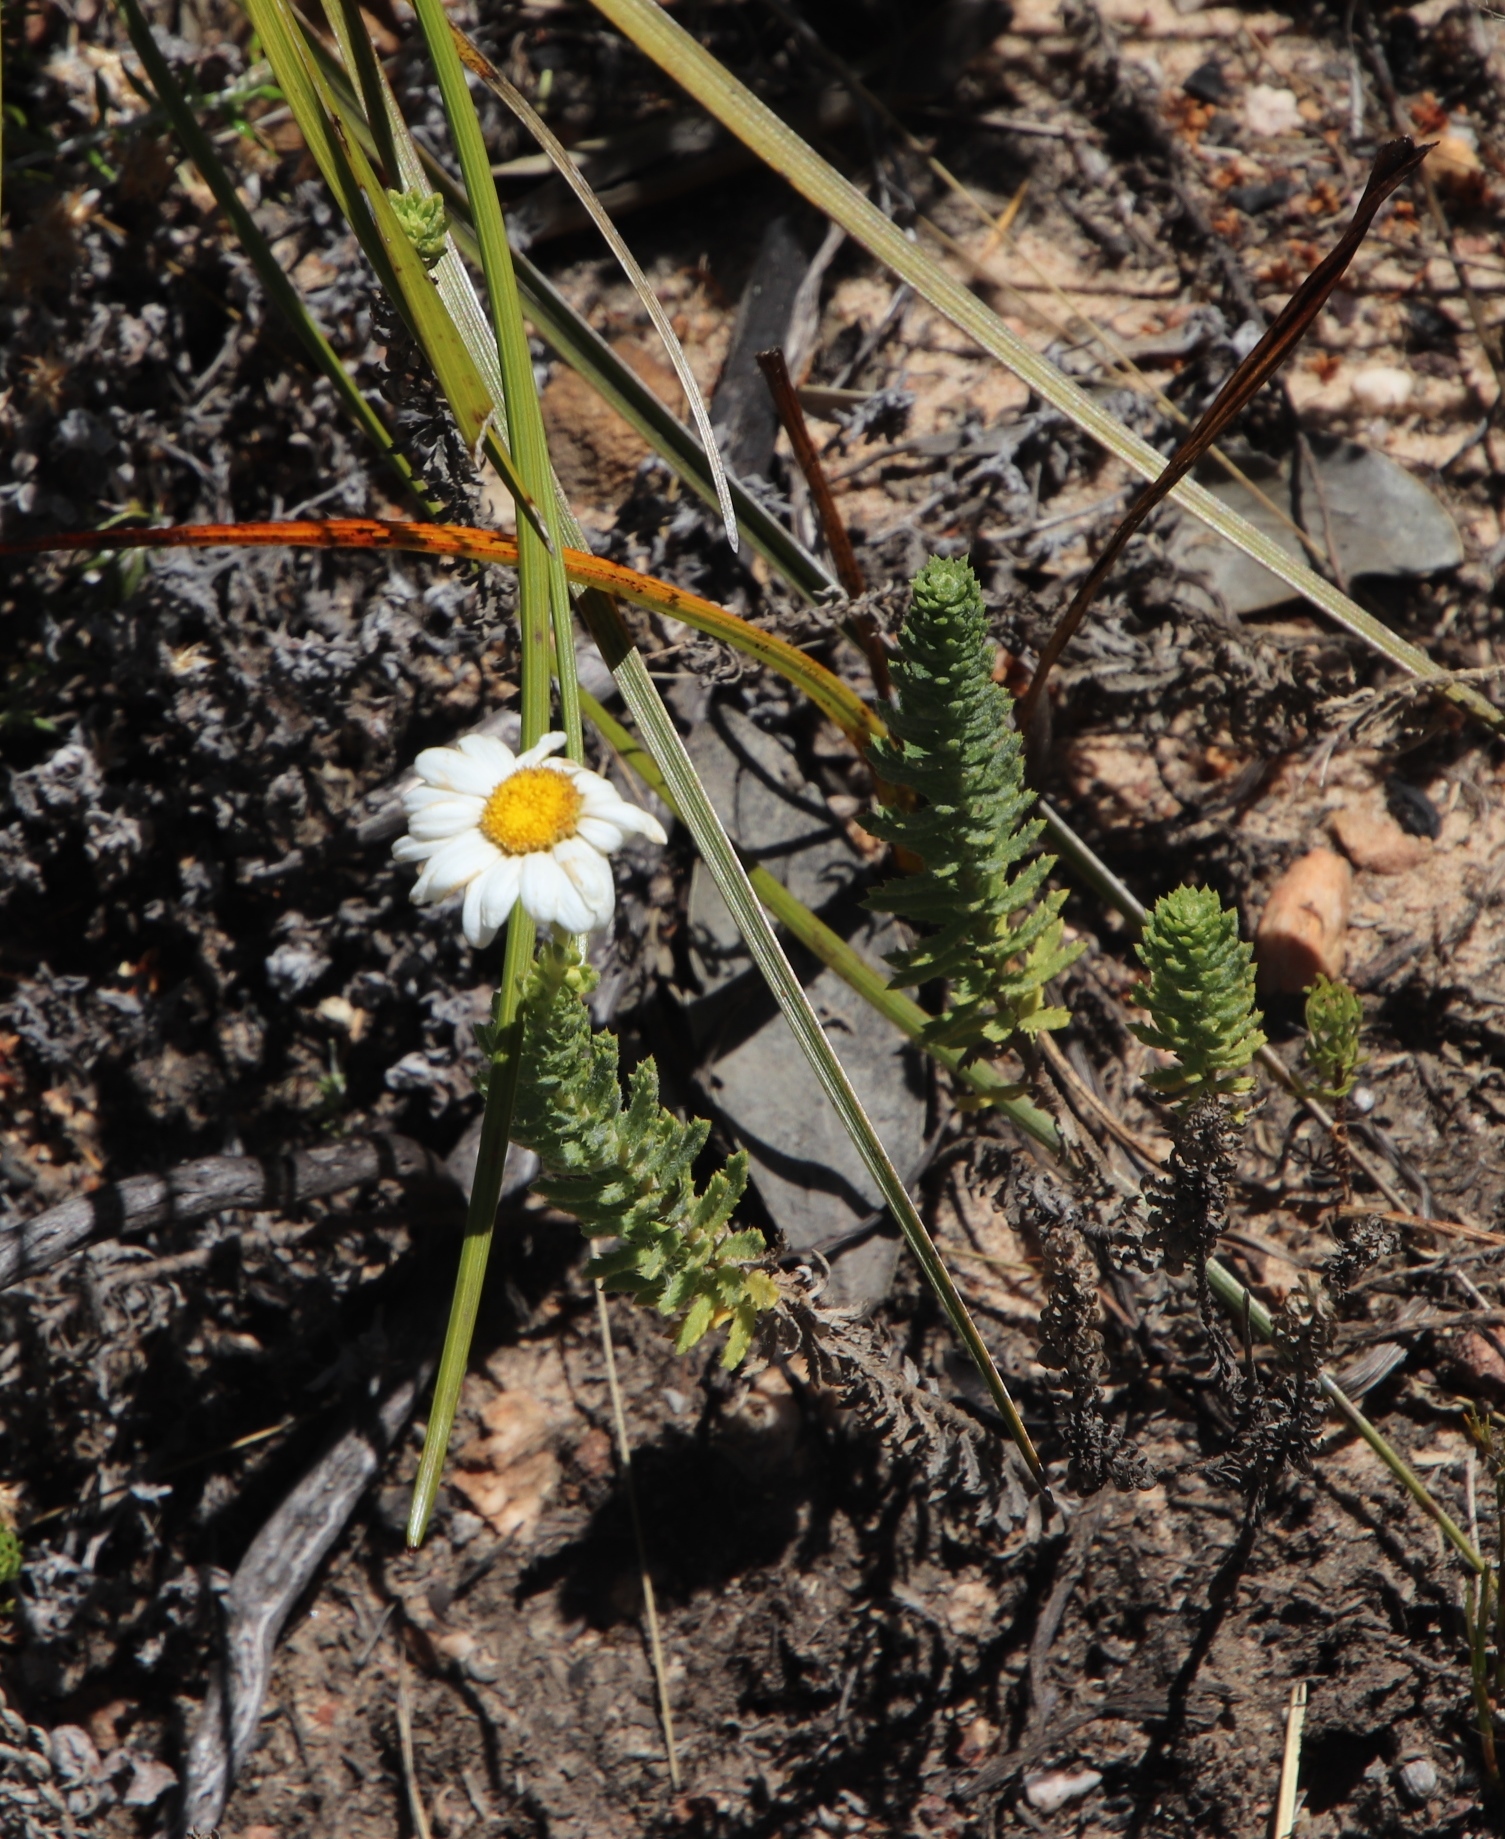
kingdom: Plantae
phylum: Tracheophyta
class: Magnoliopsida
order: Asterales
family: Asteraceae
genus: Osmitopsis
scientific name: Osmitopsis afra
